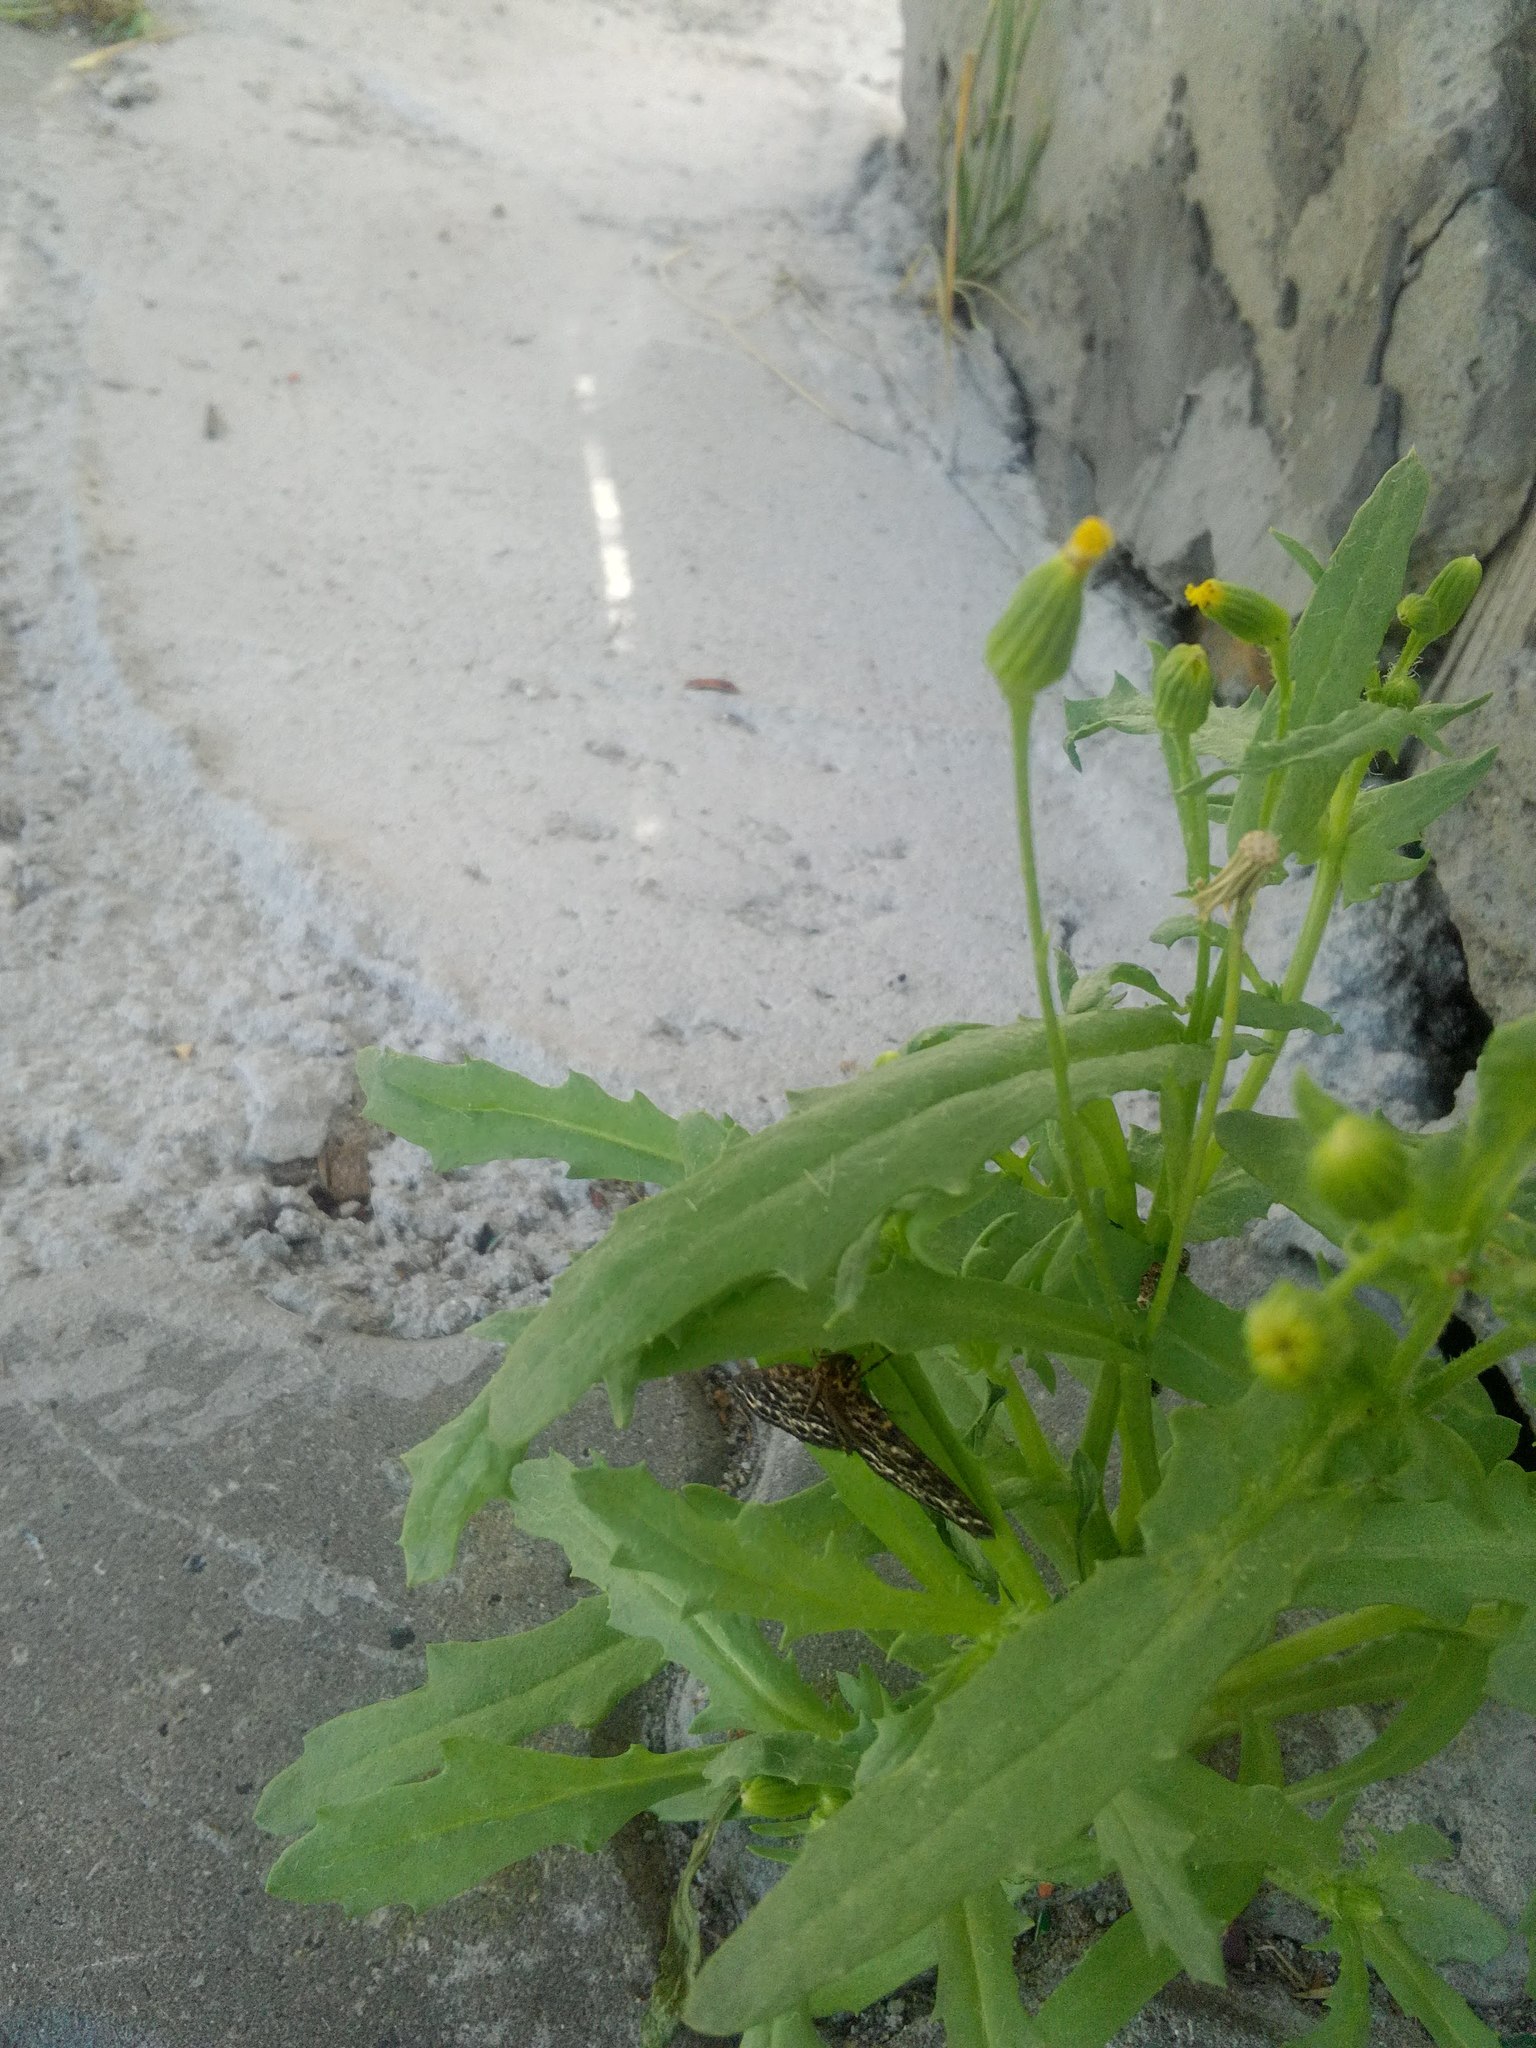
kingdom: Plantae
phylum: Tracheophyta
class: Magnoliopsida
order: Asterales
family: Asteraceae
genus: Senecio
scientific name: Senecio dubitabilis
